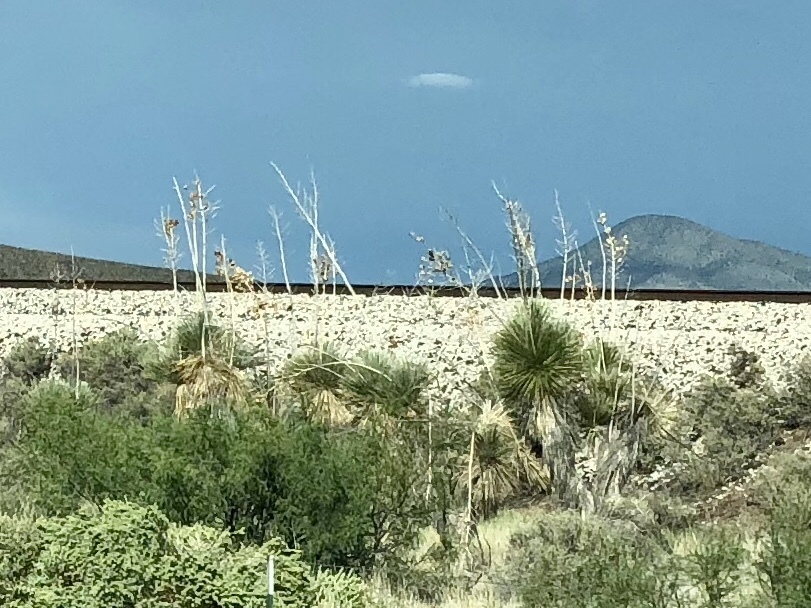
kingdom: Plantae
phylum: Tracheophyta
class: Liliopsida
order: Asparagales
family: Asparagaceae
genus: Yucca
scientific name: Yucca elata
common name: Palmella
